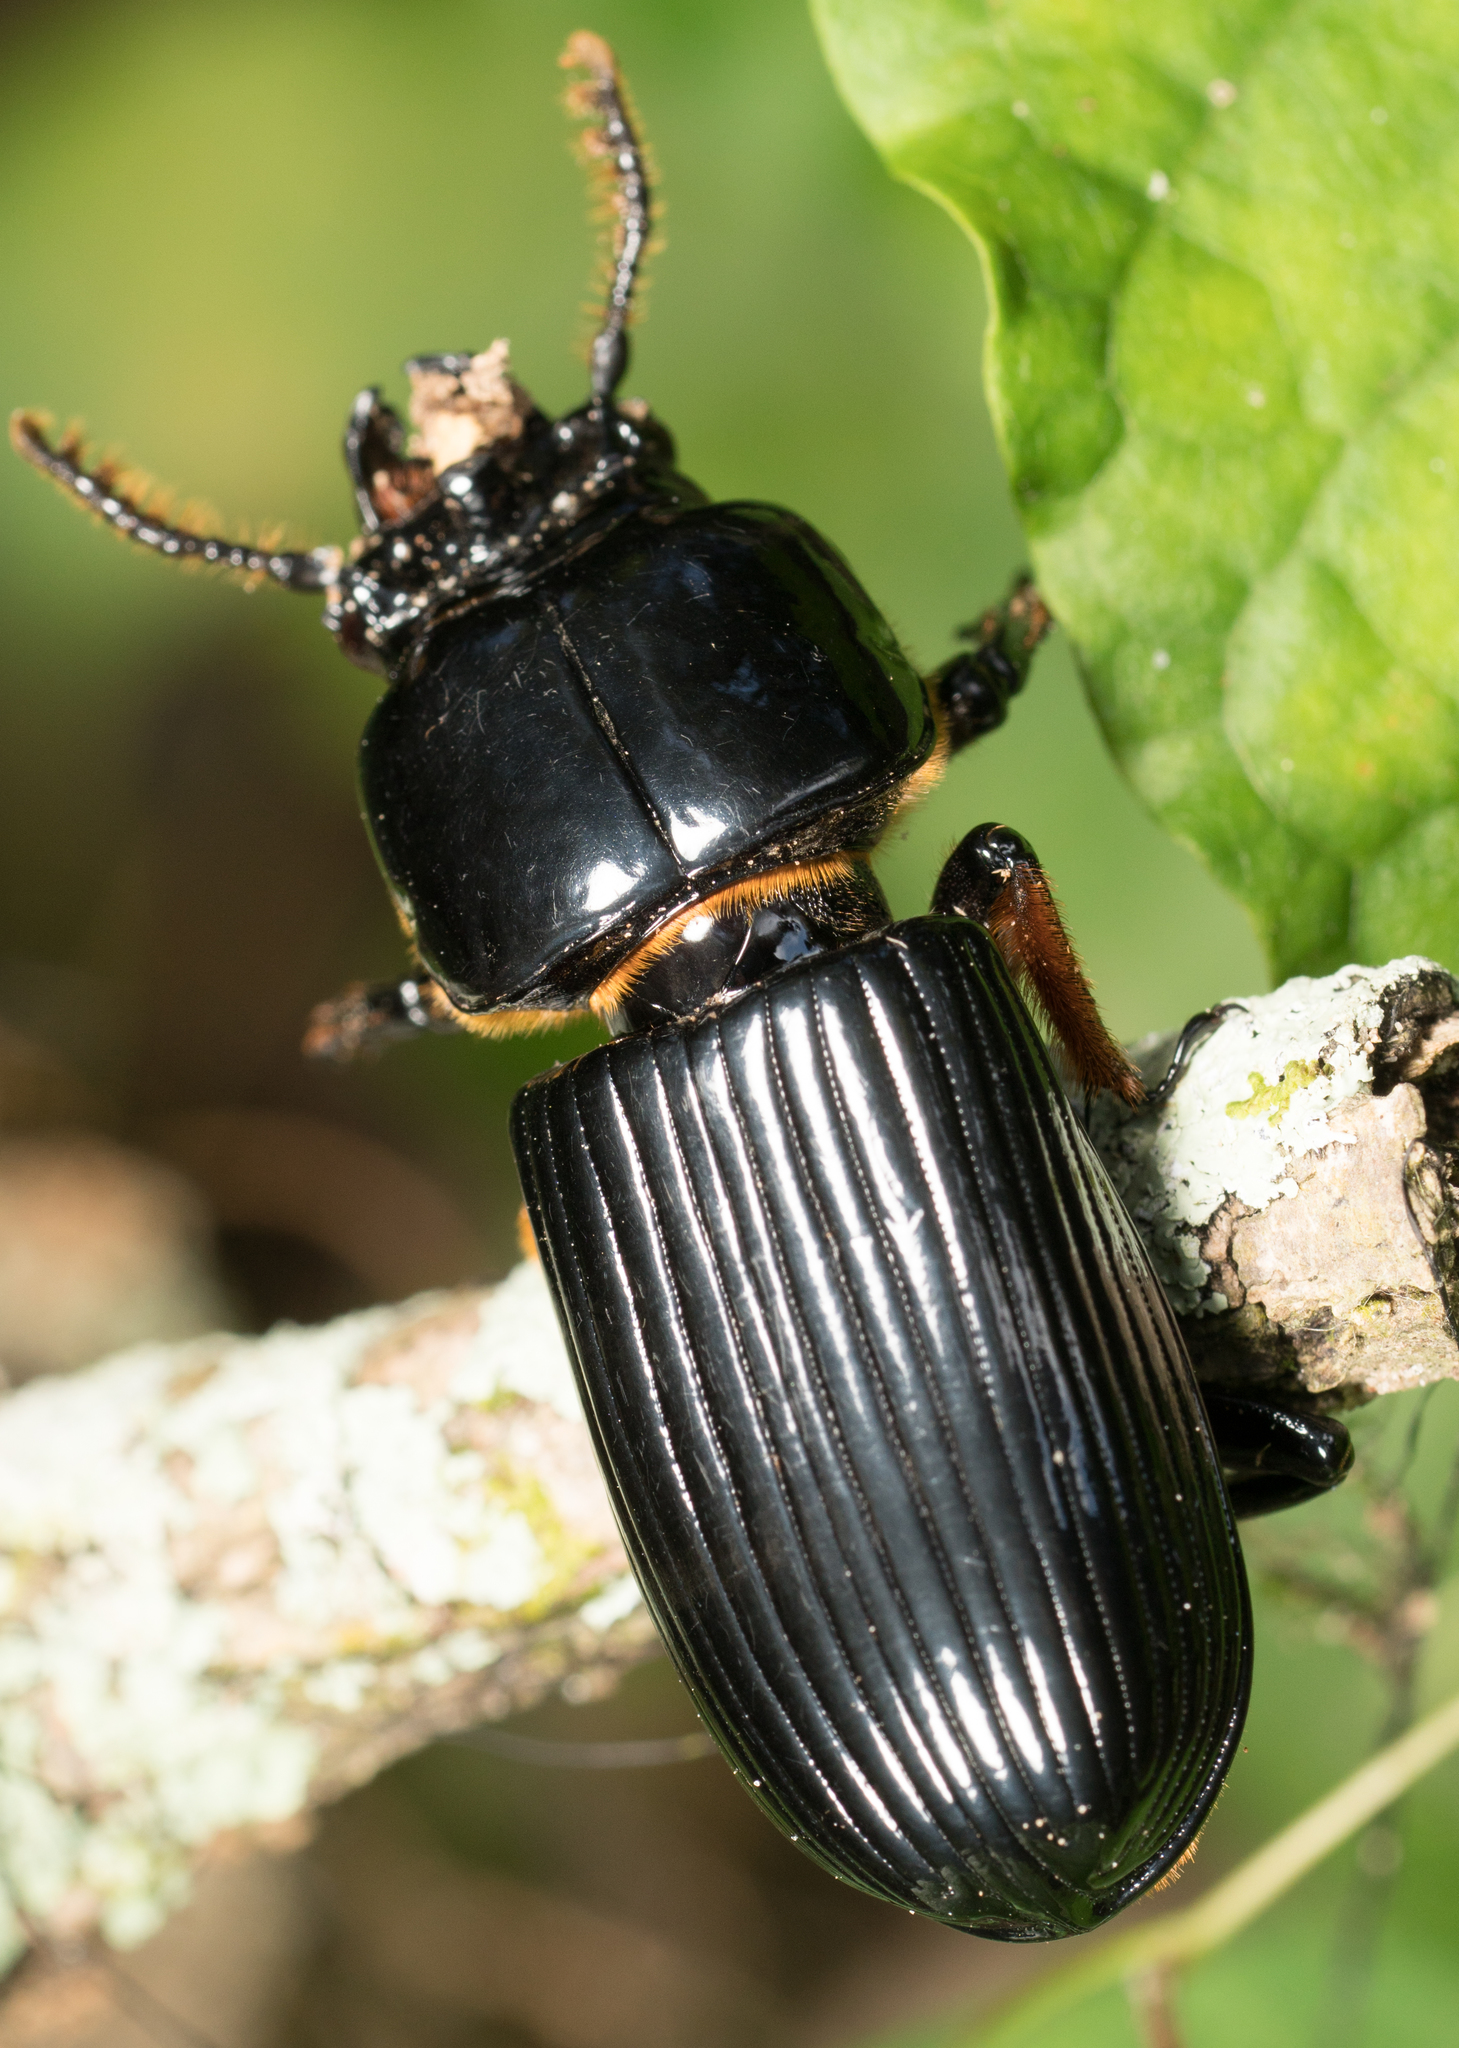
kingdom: Animalia
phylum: Arthropoda
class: Insecta
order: Coleoptera
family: Passalidae
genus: Odontotaenius
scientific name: Odontotaenius disjunctus
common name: Patent leather beetle
